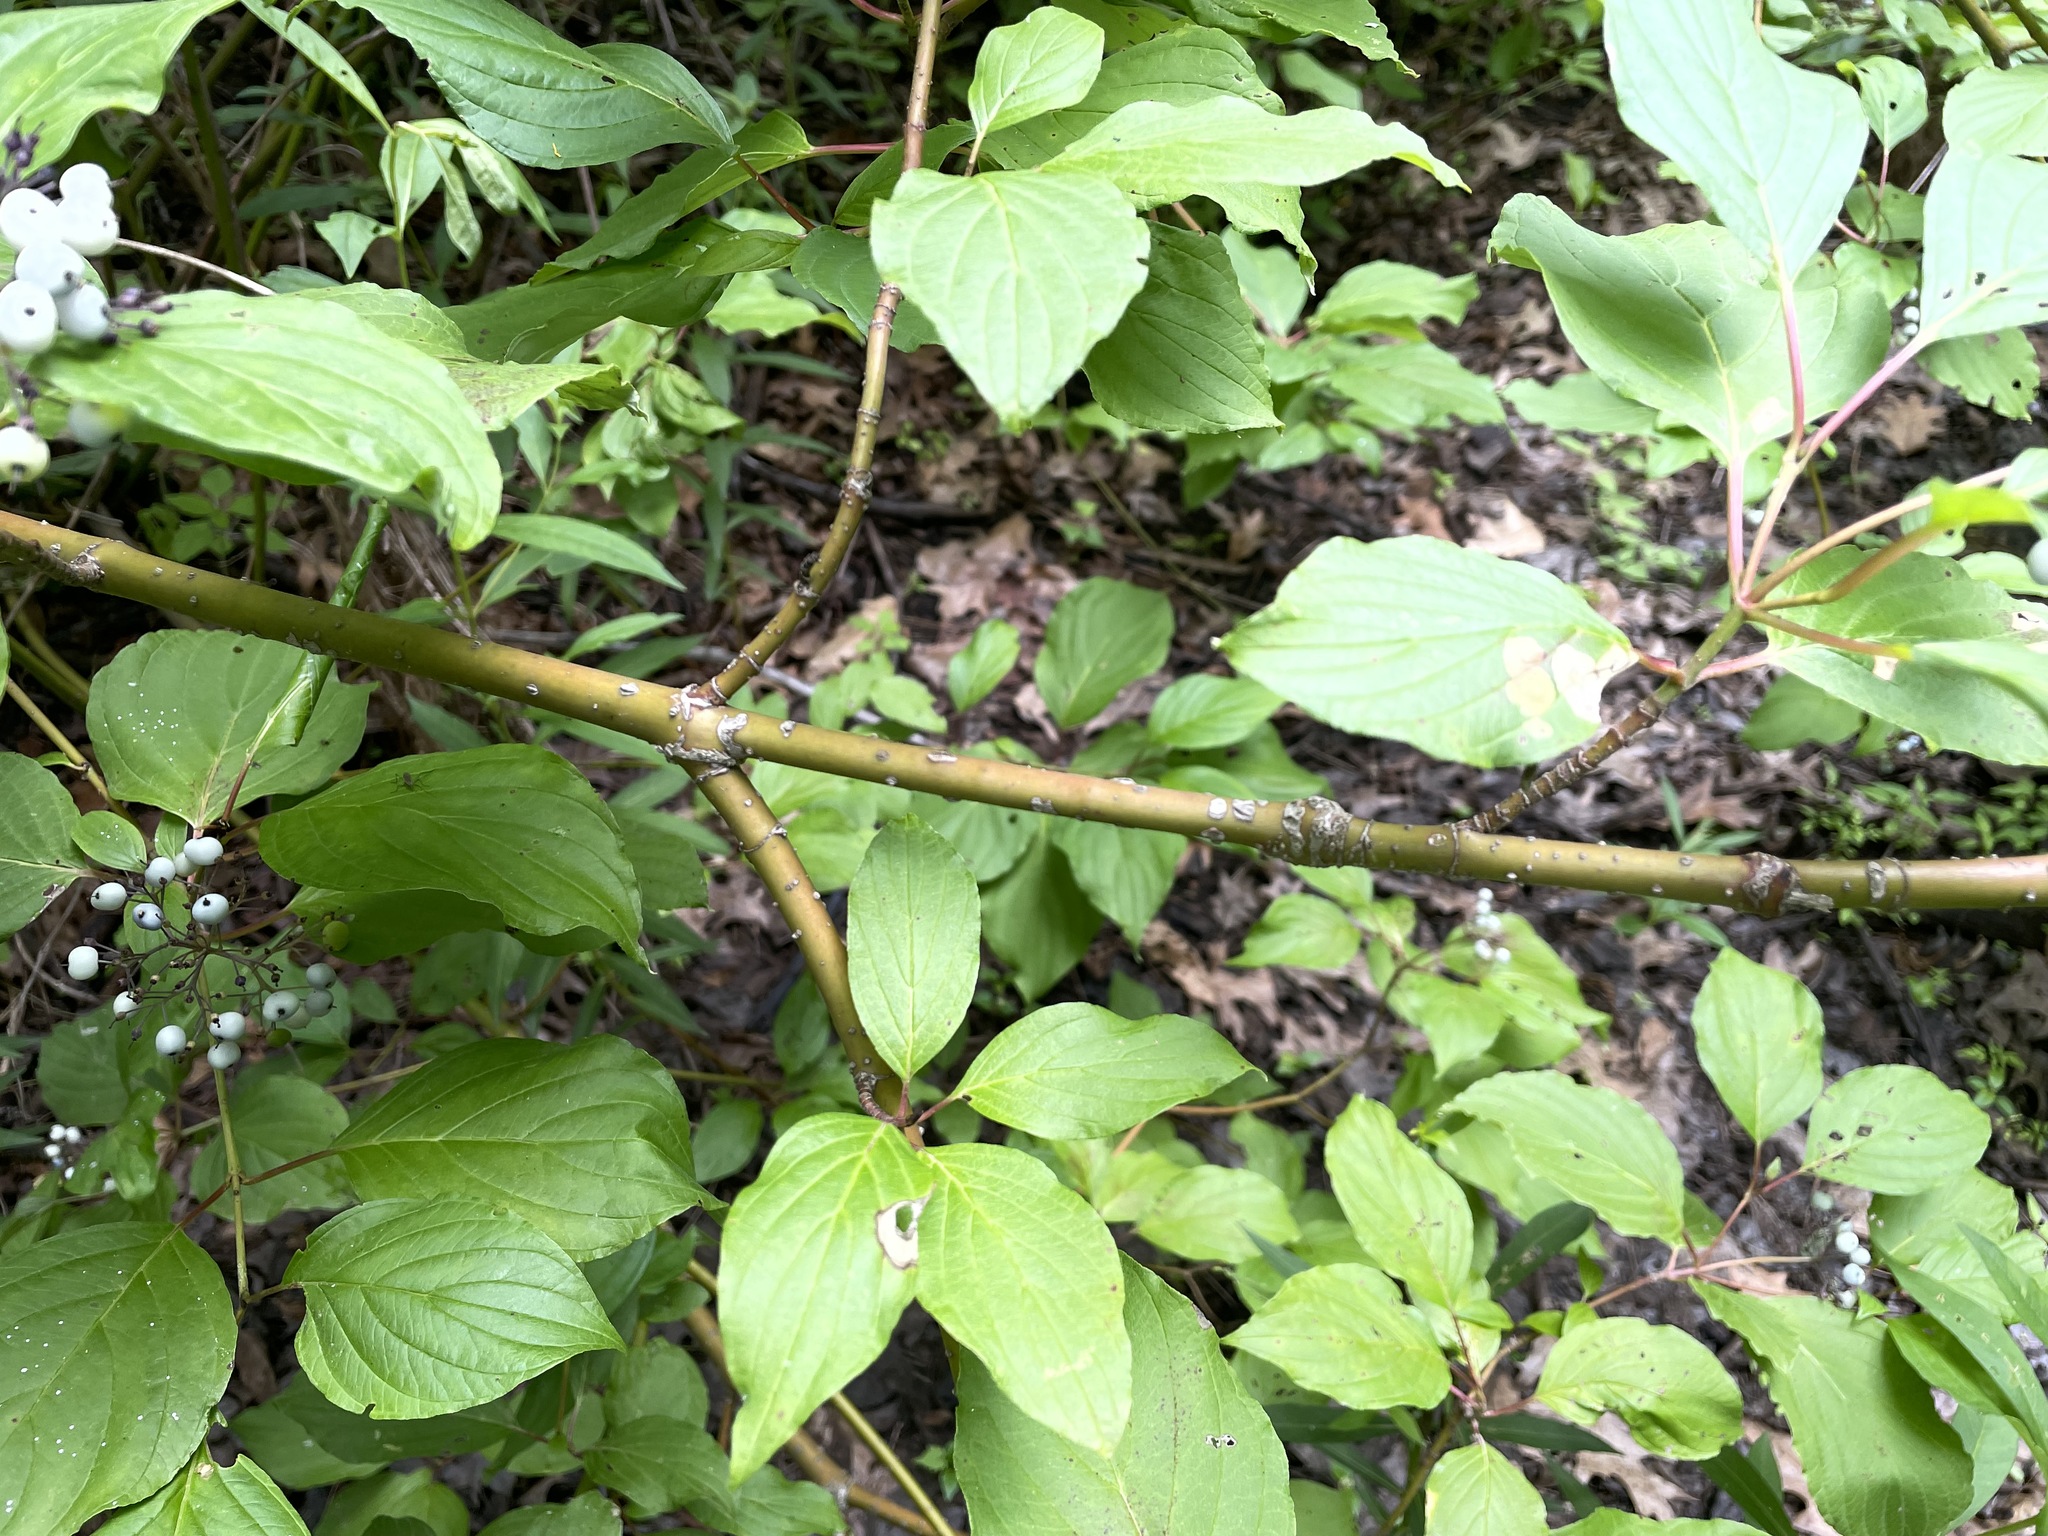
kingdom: Plantae
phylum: Tracheophyta
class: Magnoliopsida
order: Cornales
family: Cornaceae
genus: Cornus
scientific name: Cornus sericea
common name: Red-osier dogwood
